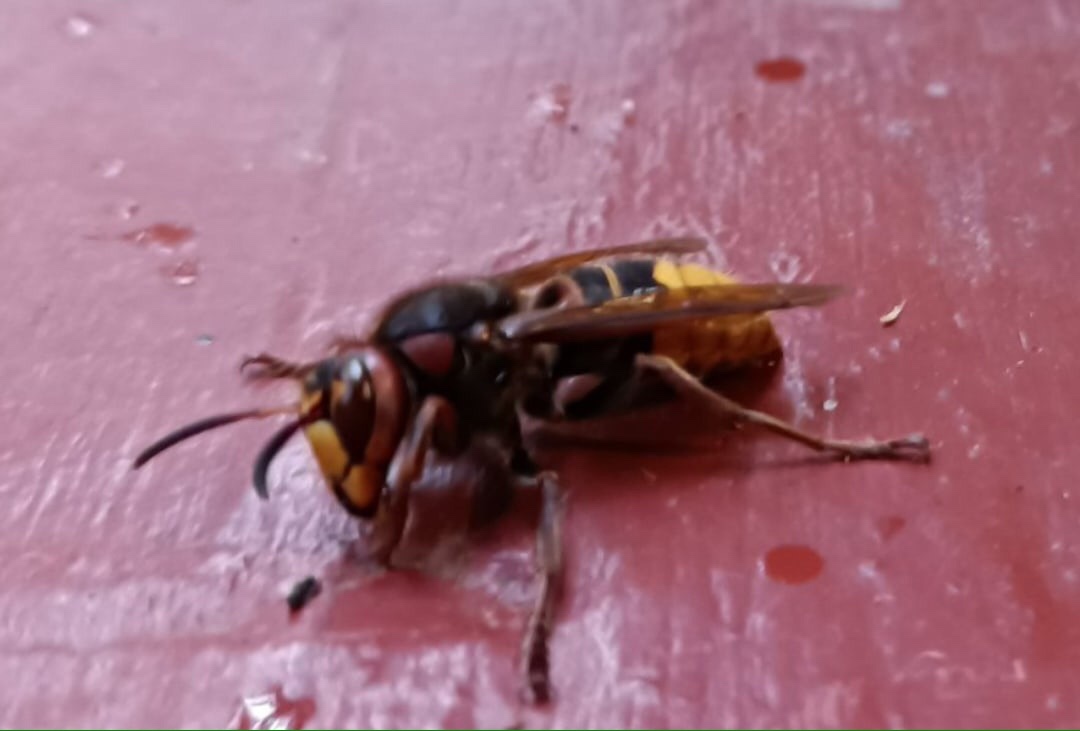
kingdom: Animalia
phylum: Arthropoda
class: Insecta
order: Hymenoptera
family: Vespidae
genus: Vespa
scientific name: Vespa crabro
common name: Hornet
